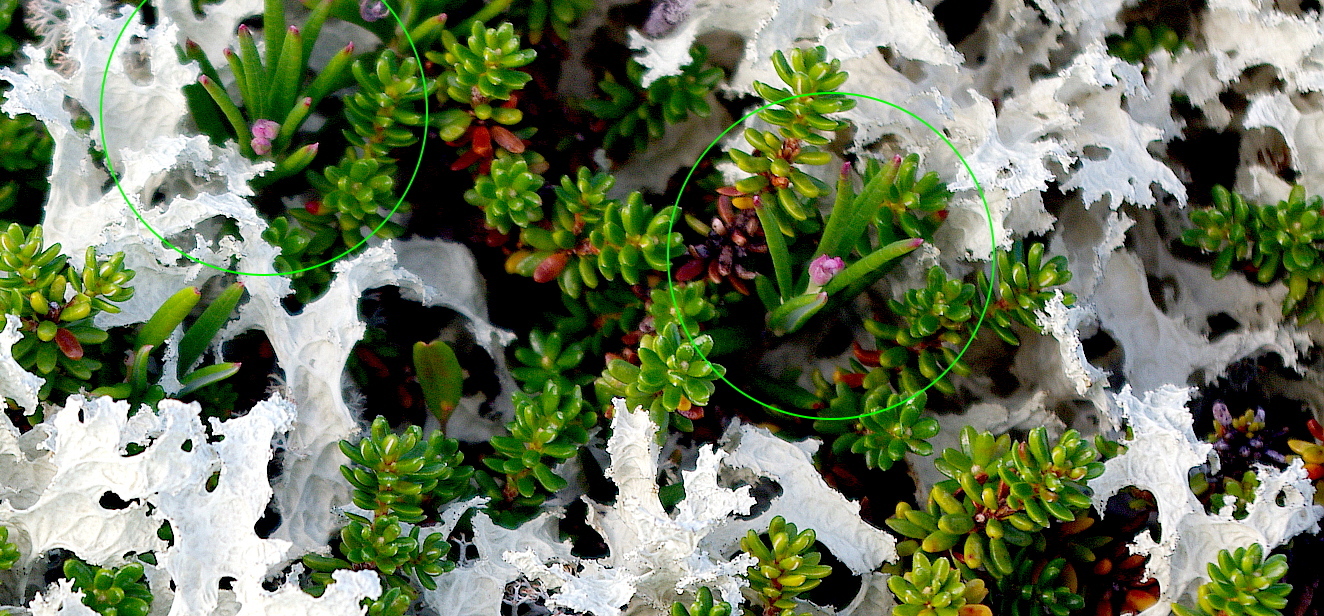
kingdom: Plantae
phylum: Tracheophyta
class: Magnoliopsida
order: Ericales
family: Ericaceae
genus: Andromeda
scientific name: Andromeda polifolia
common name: Bog-rosemary
